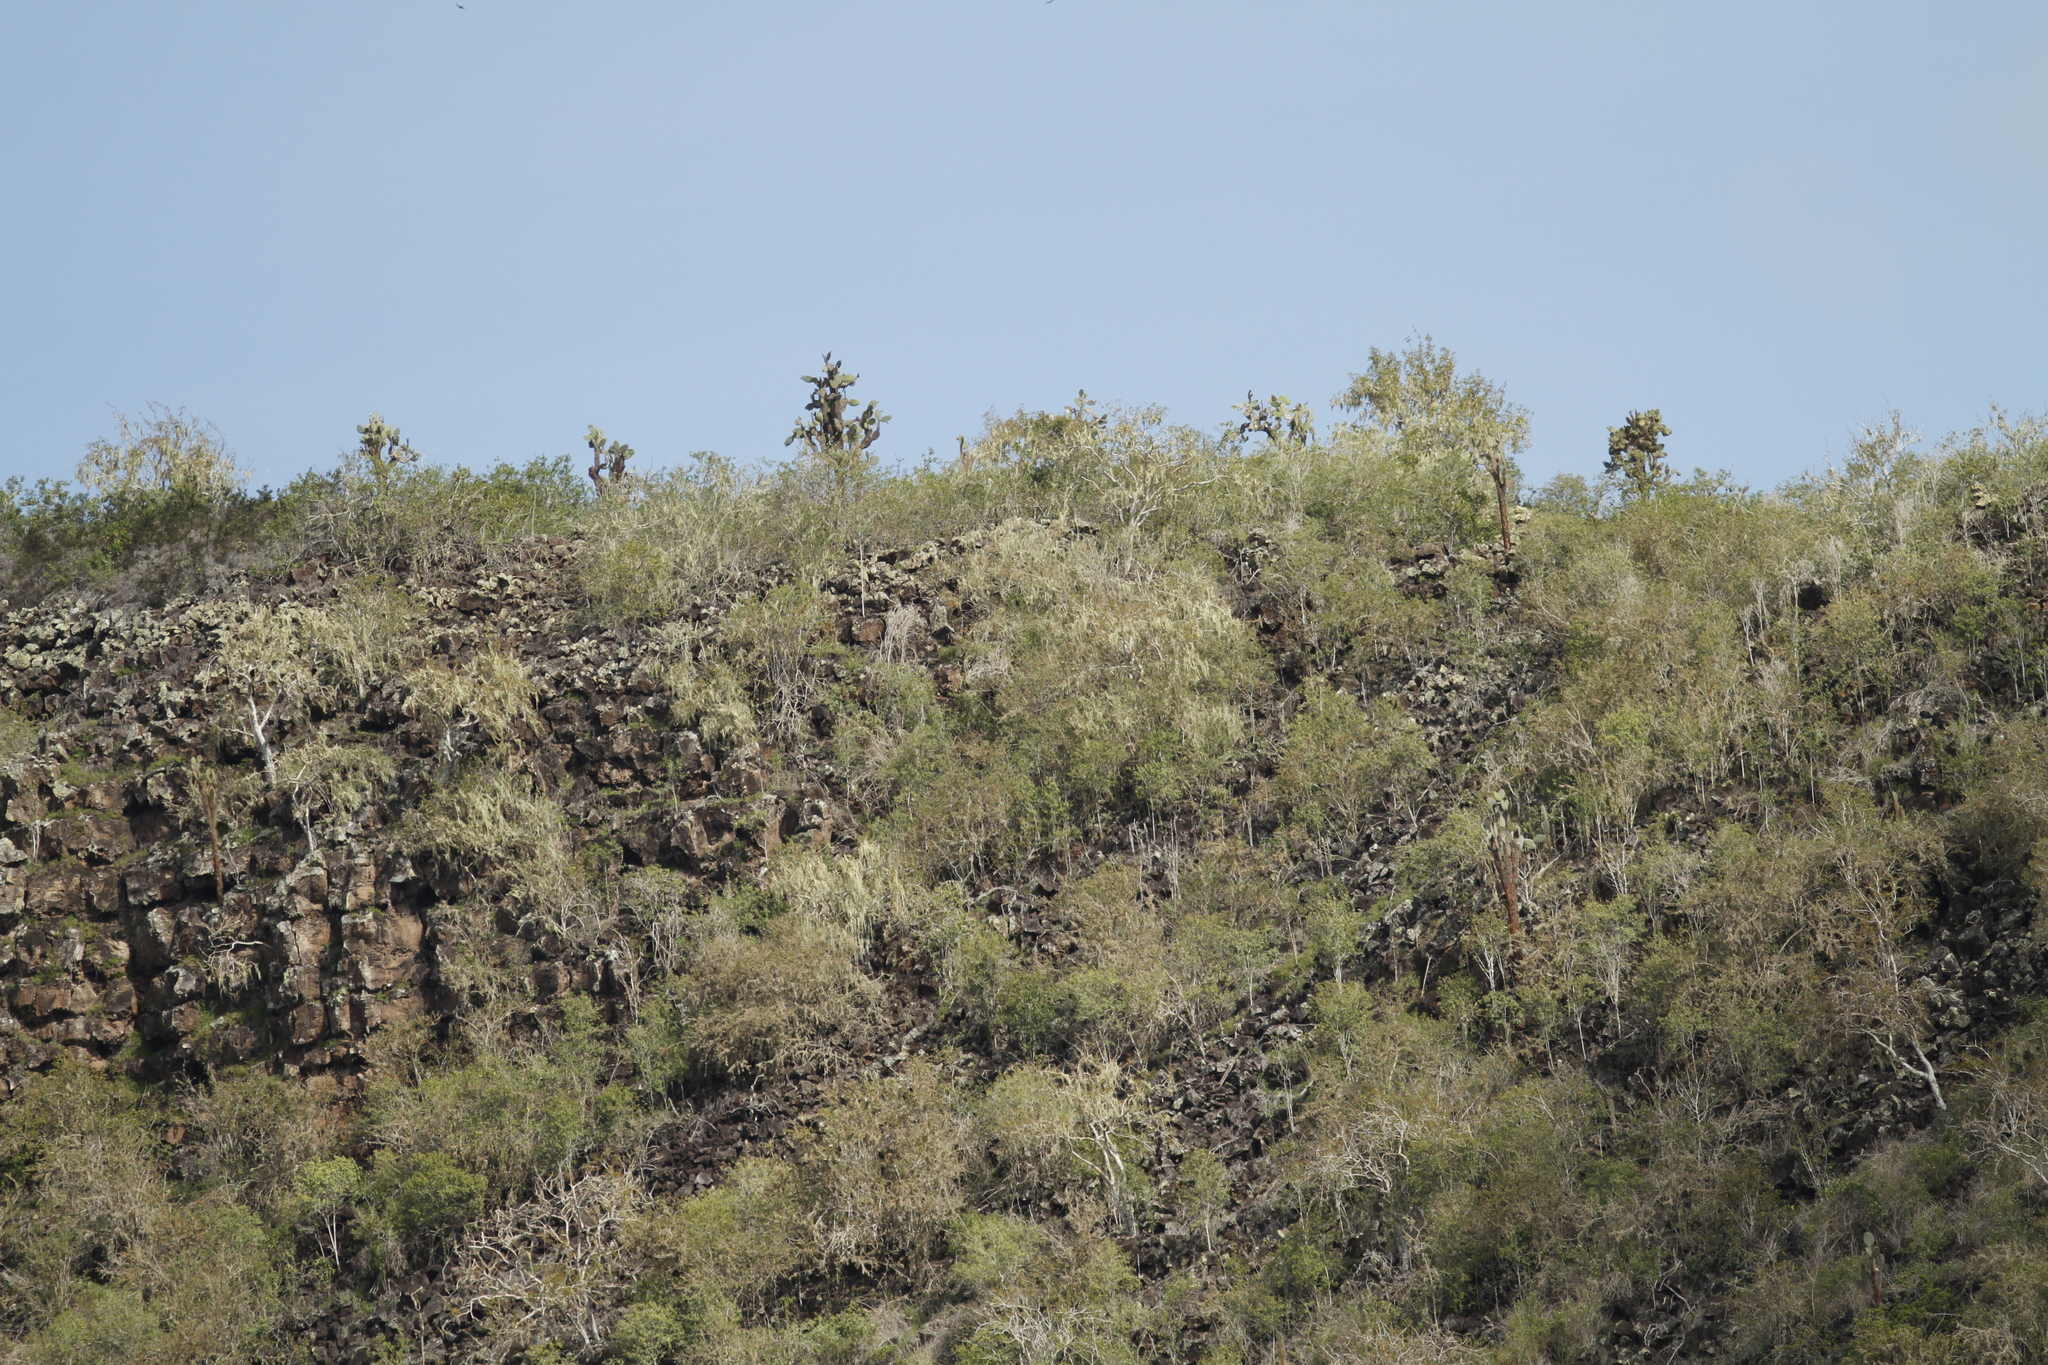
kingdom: Plantae
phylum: Tracheophyta
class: Magnoliopsida
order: Caryophyllales
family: Cactaceae
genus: Opuntia
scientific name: Opuntia galapageia
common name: Galápagos prickly pear
